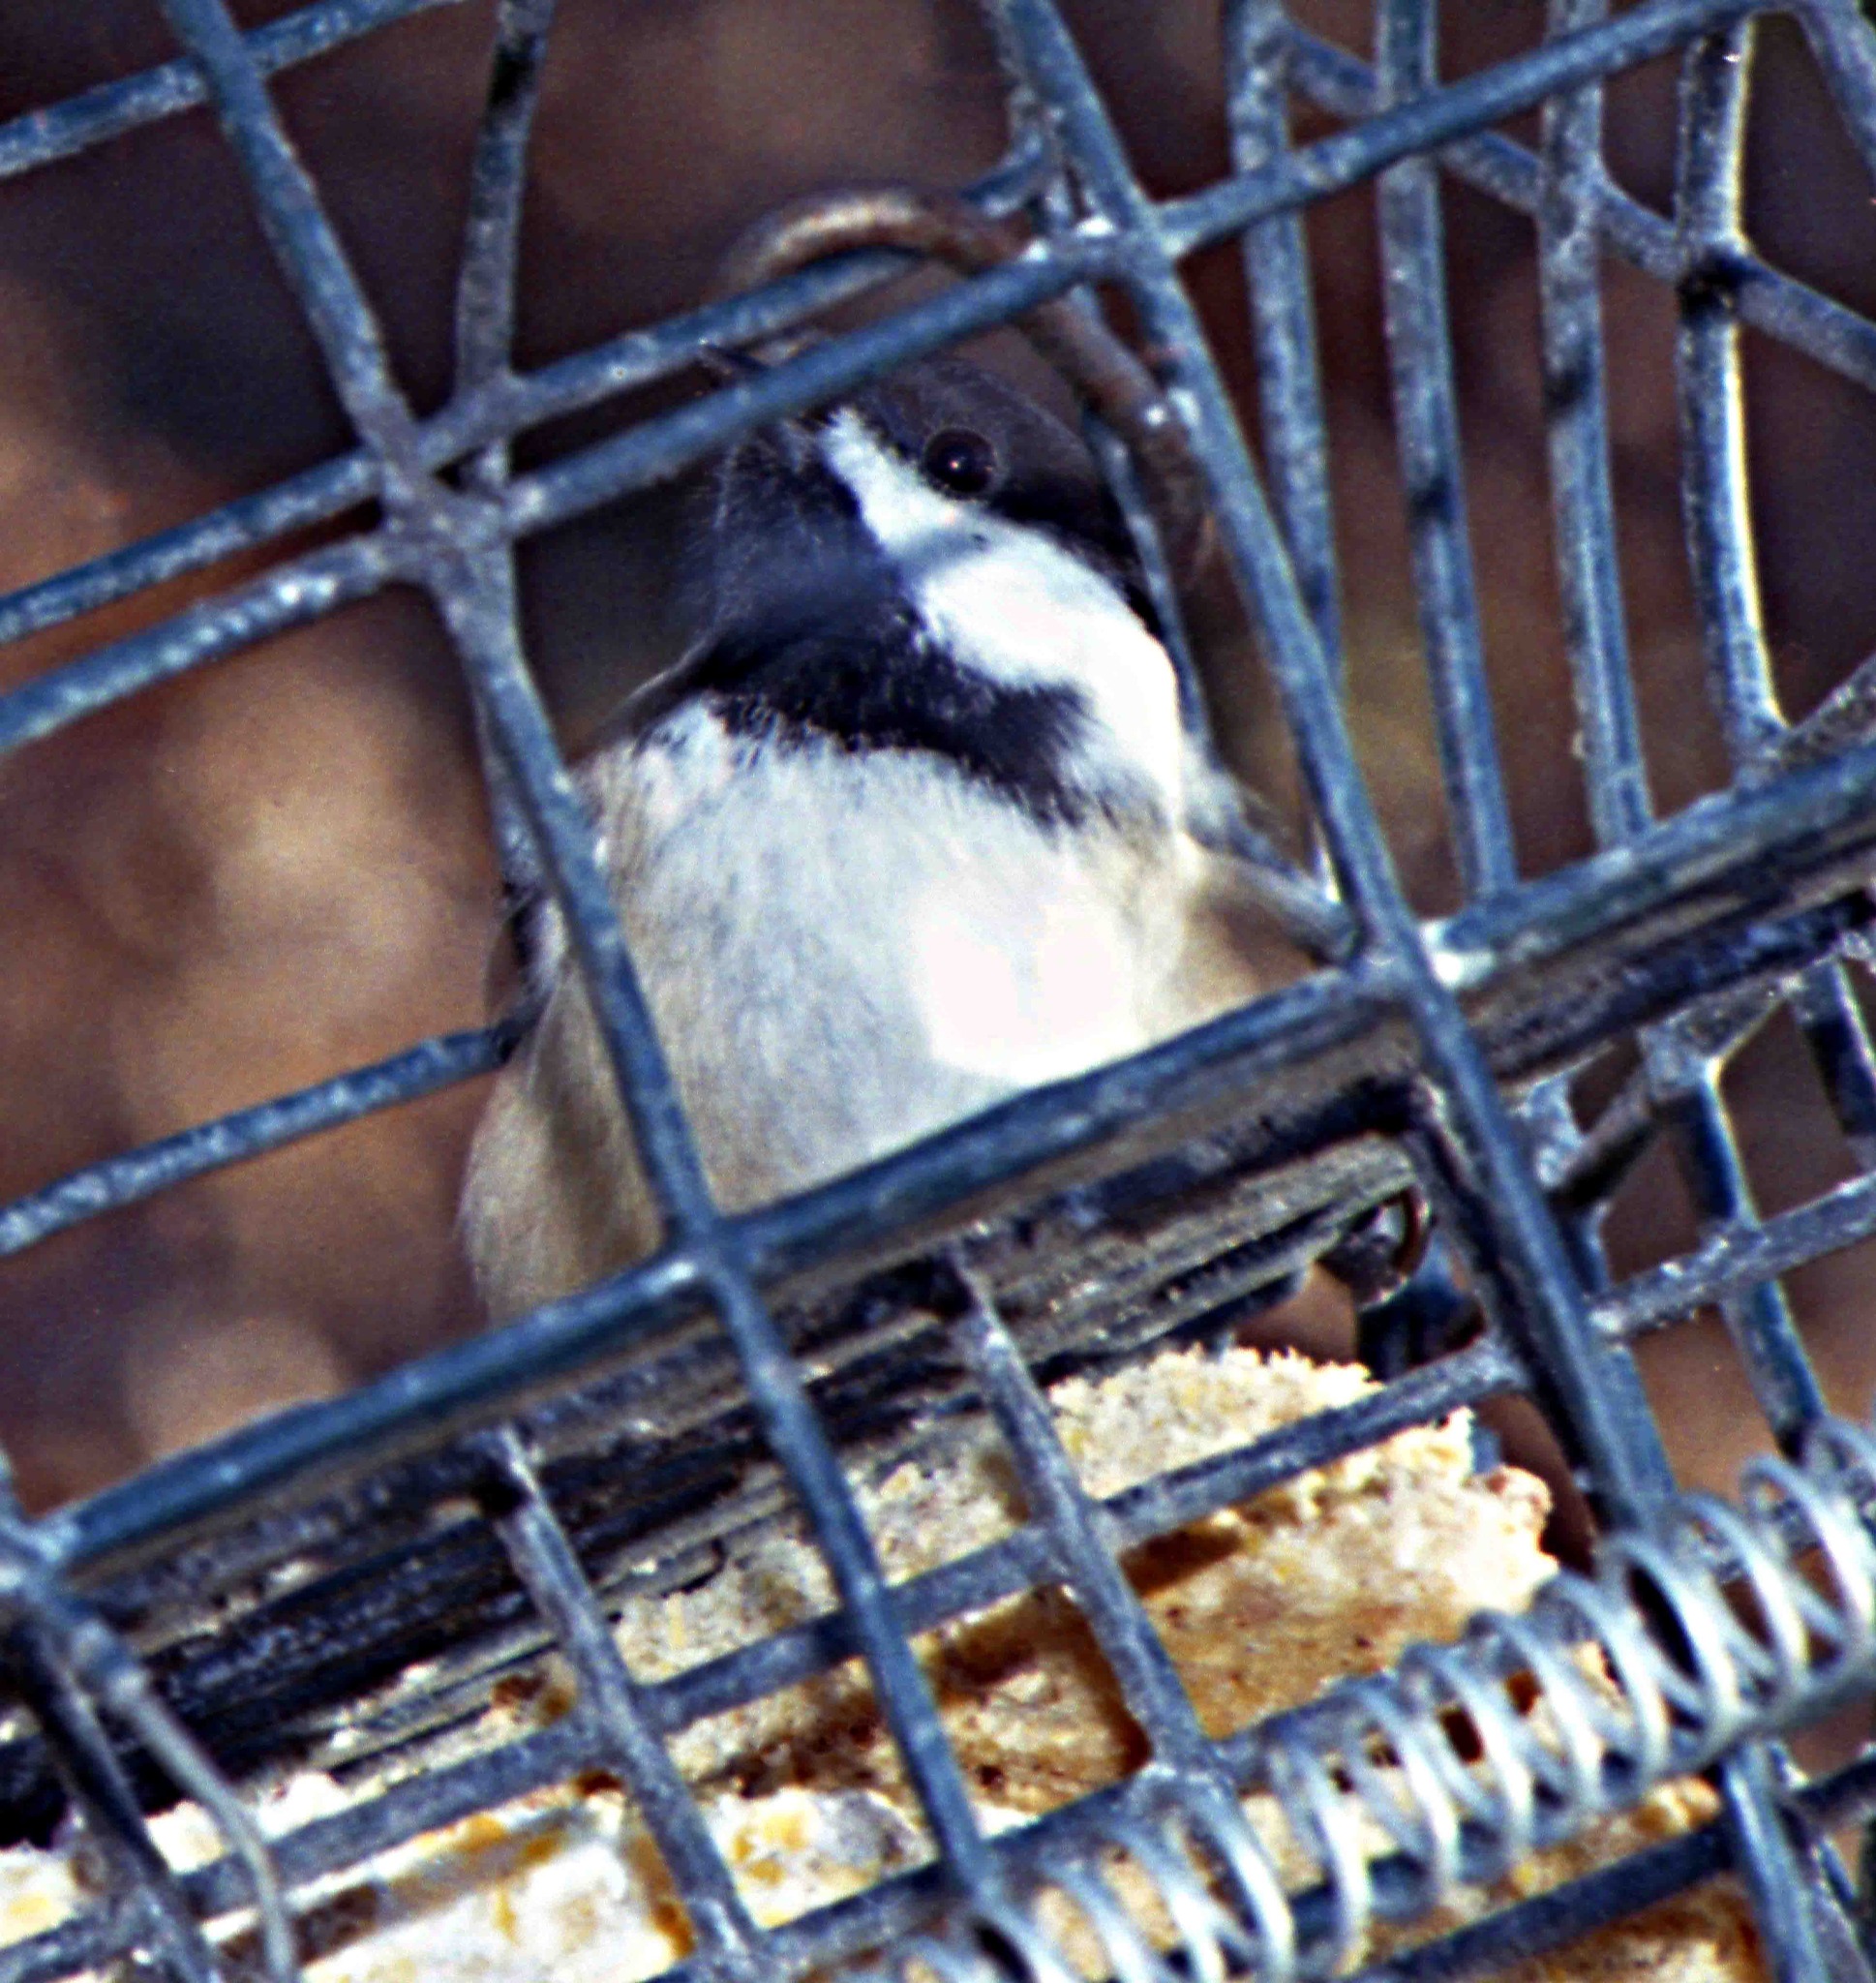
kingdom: Animalia
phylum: Chordata
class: Aves
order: Passeriformes
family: Paridae
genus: Poecile
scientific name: Poecile atricapillus
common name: Black-capped chickadee
